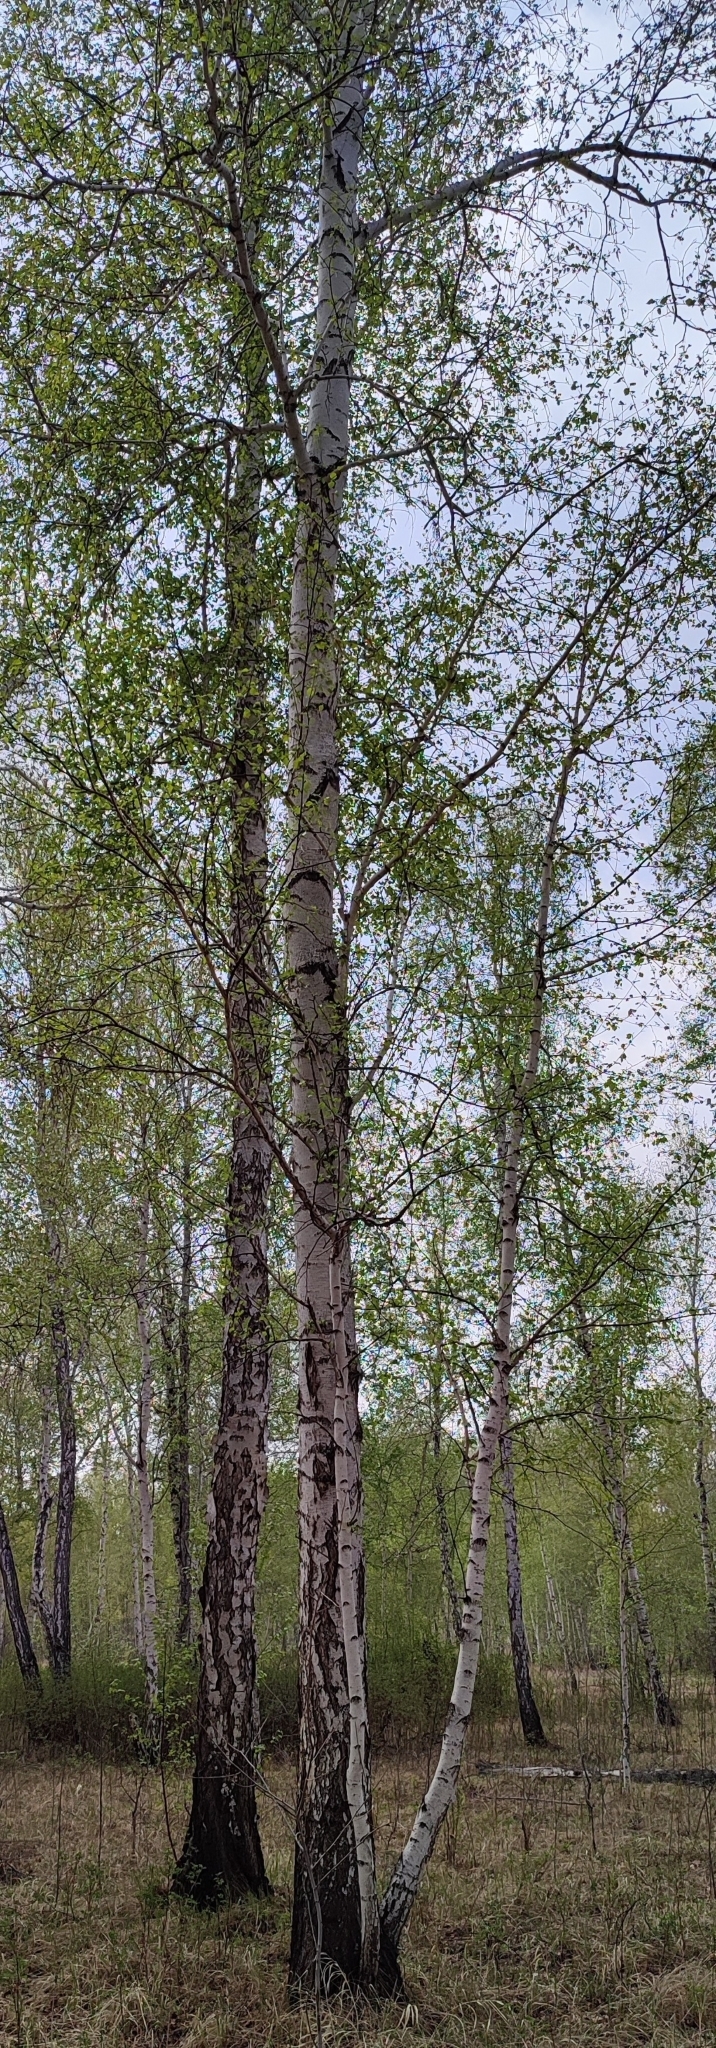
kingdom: Plantae
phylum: Tracheophyta
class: Magnoliopsida
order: Fagales
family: Betulaceae
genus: Betula
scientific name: Betula pendula
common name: Silver birch
